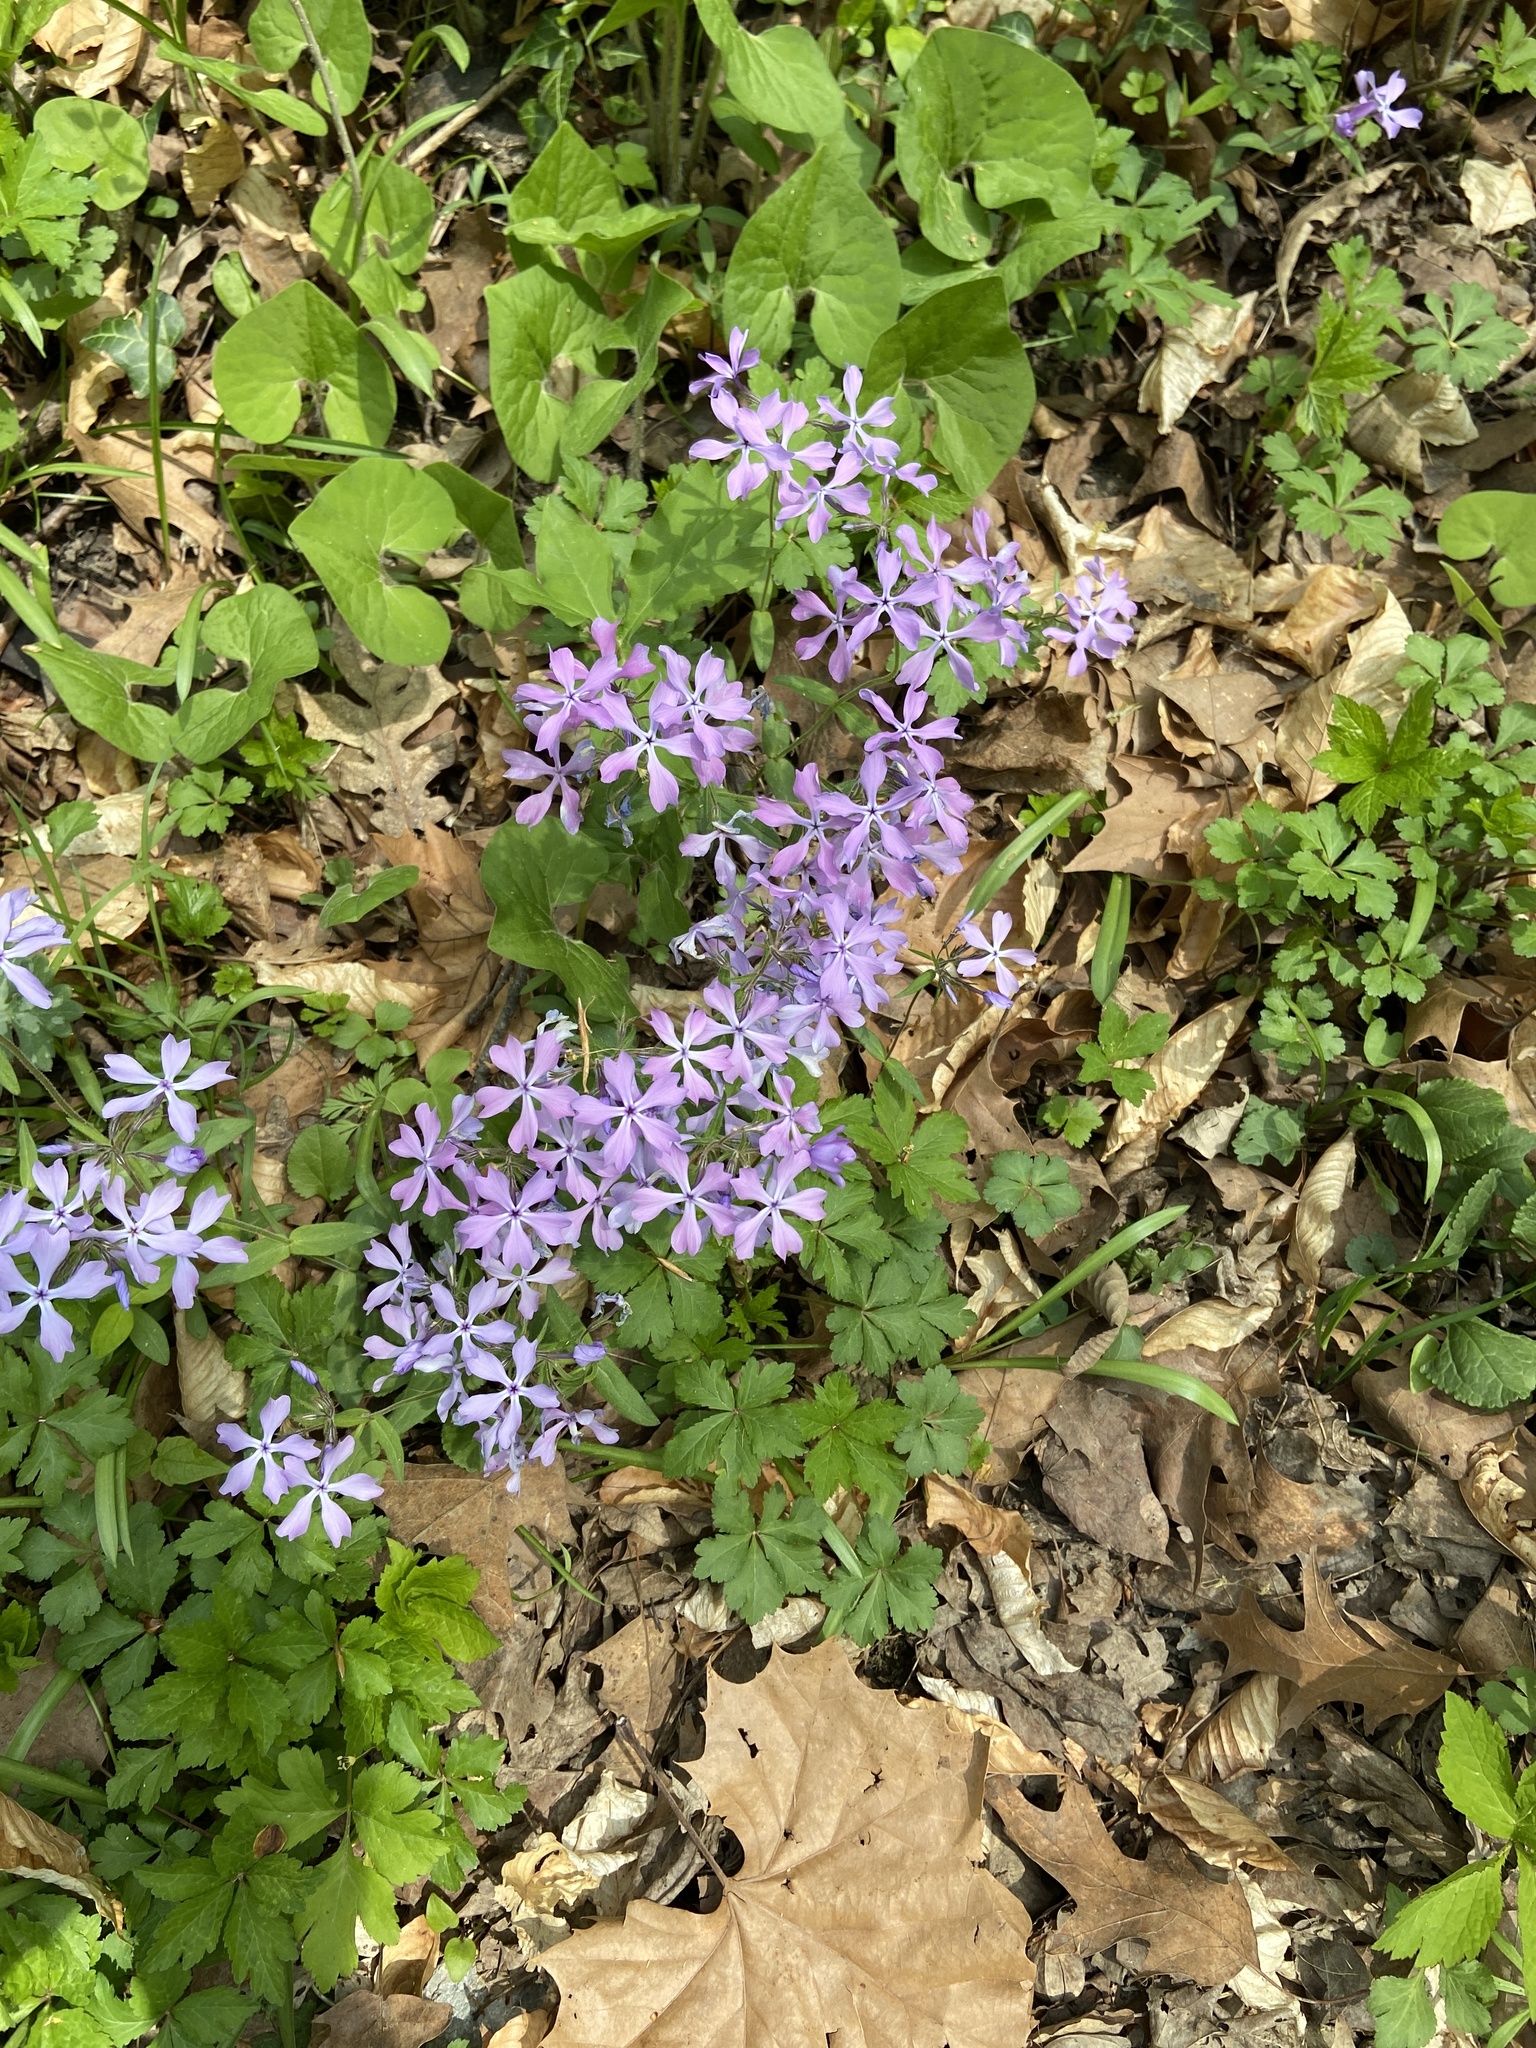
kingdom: Plantae
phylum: Tracheophyta
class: Magnoliopsida
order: Ericales
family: Polemoniaceae
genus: Phlox
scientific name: Phlox divaricata
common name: Blue phlox
